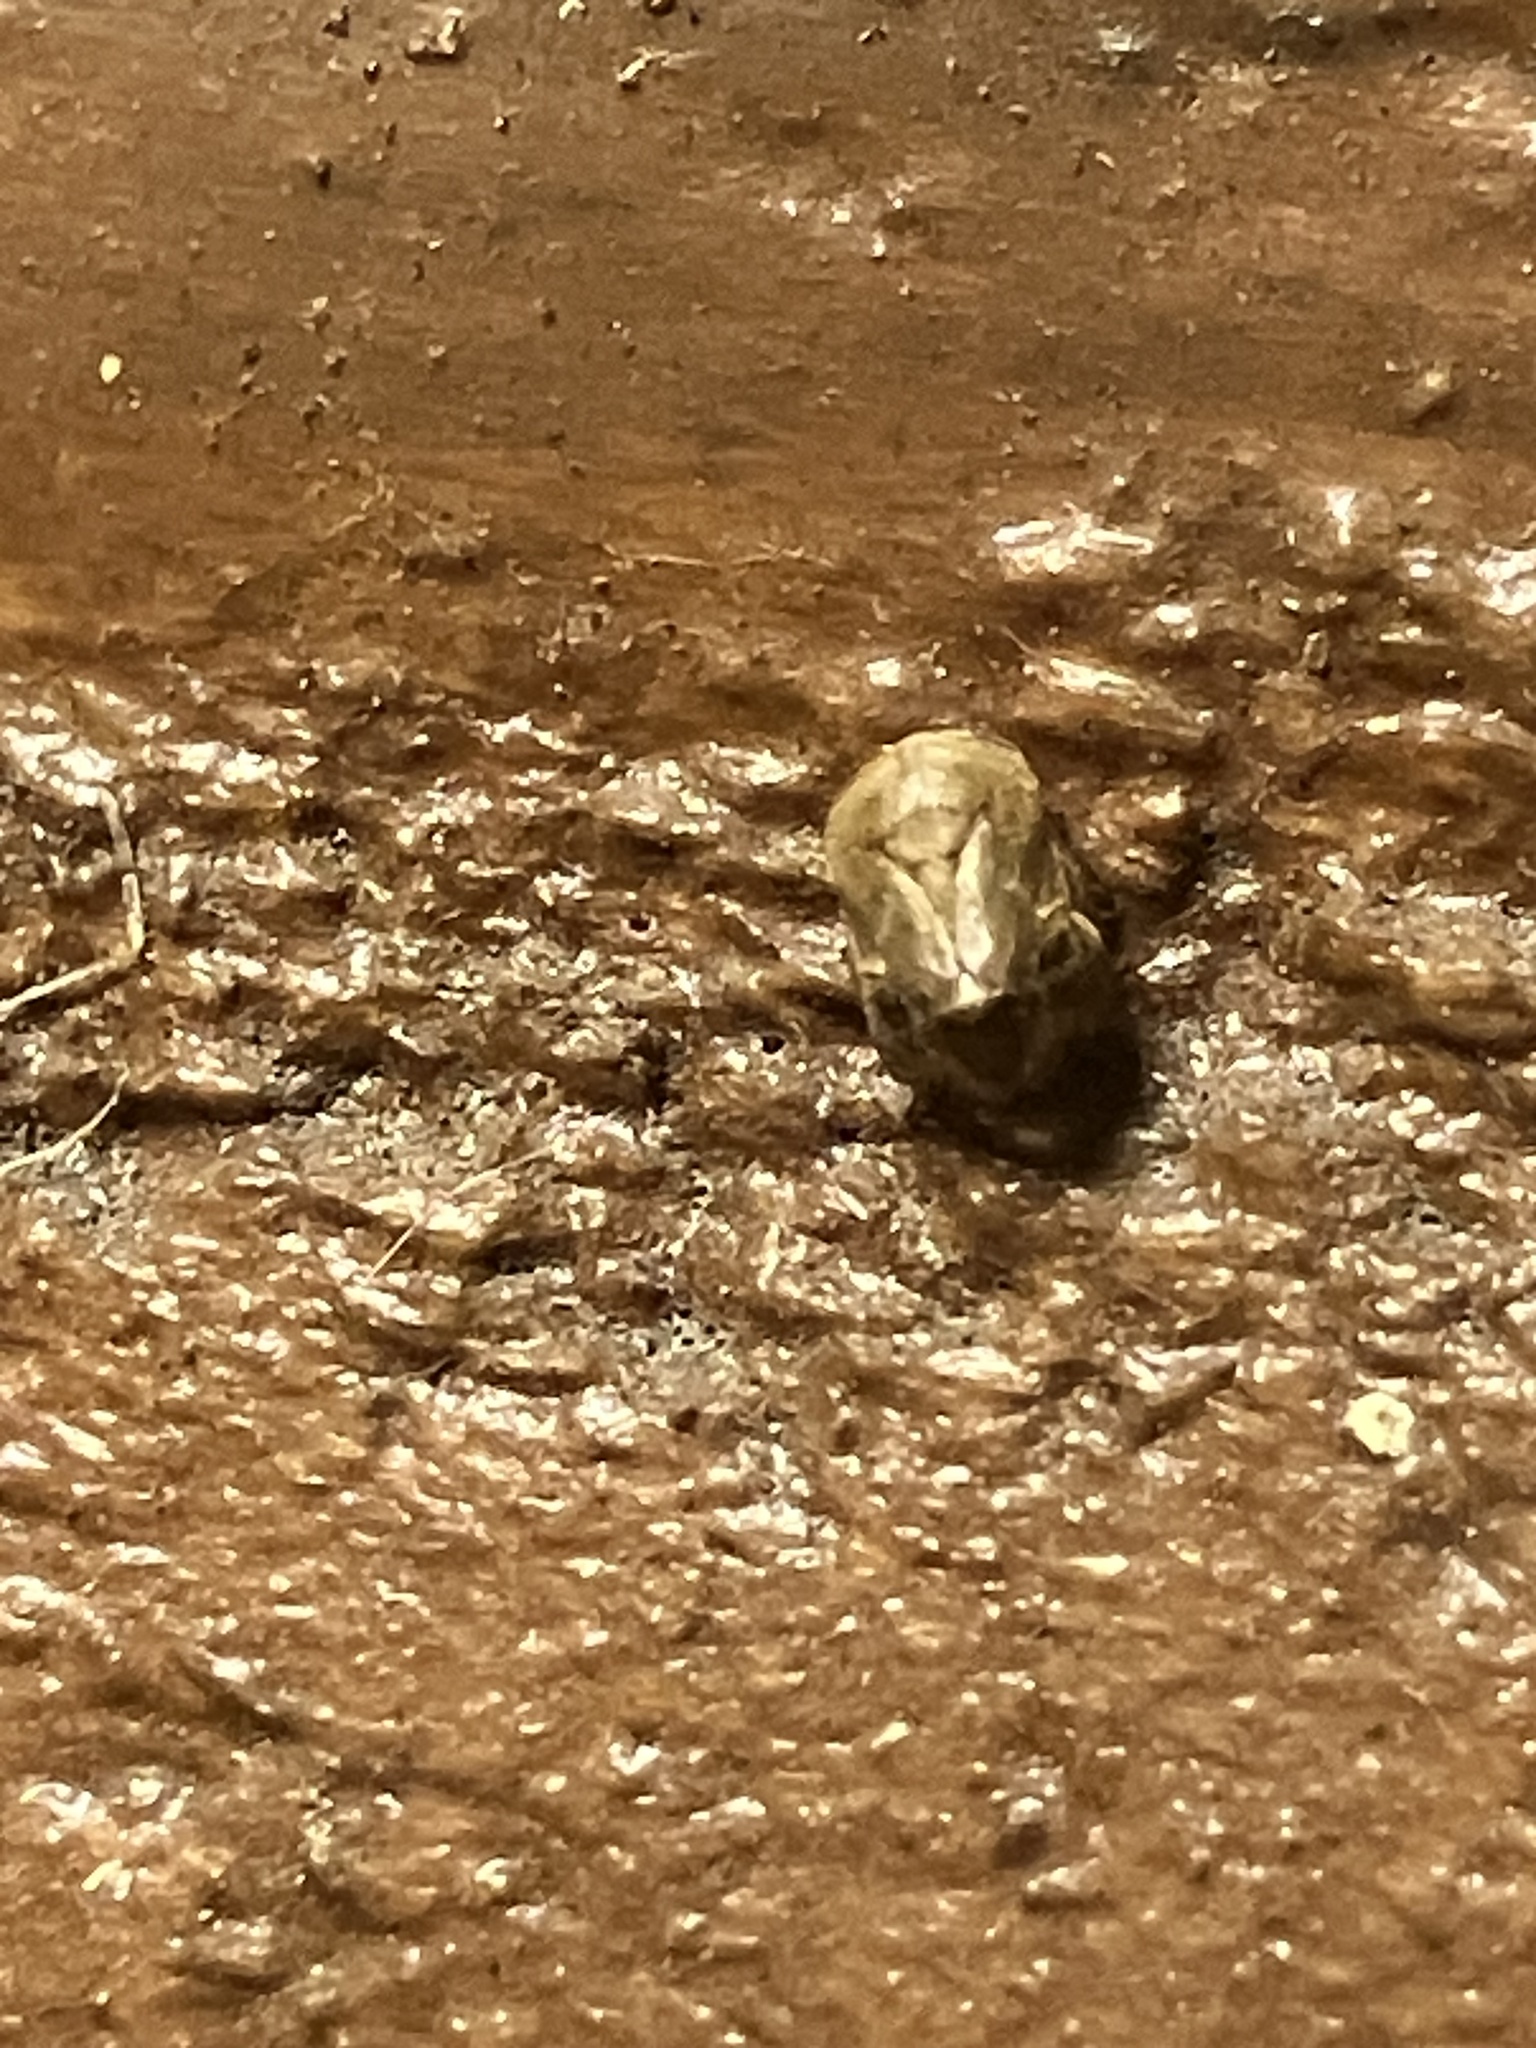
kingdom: Animalia
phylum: Arthropoda
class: Insecta
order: Hemiptera
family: Clastopteridae
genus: Clastoptera
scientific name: Clastoptera querci
